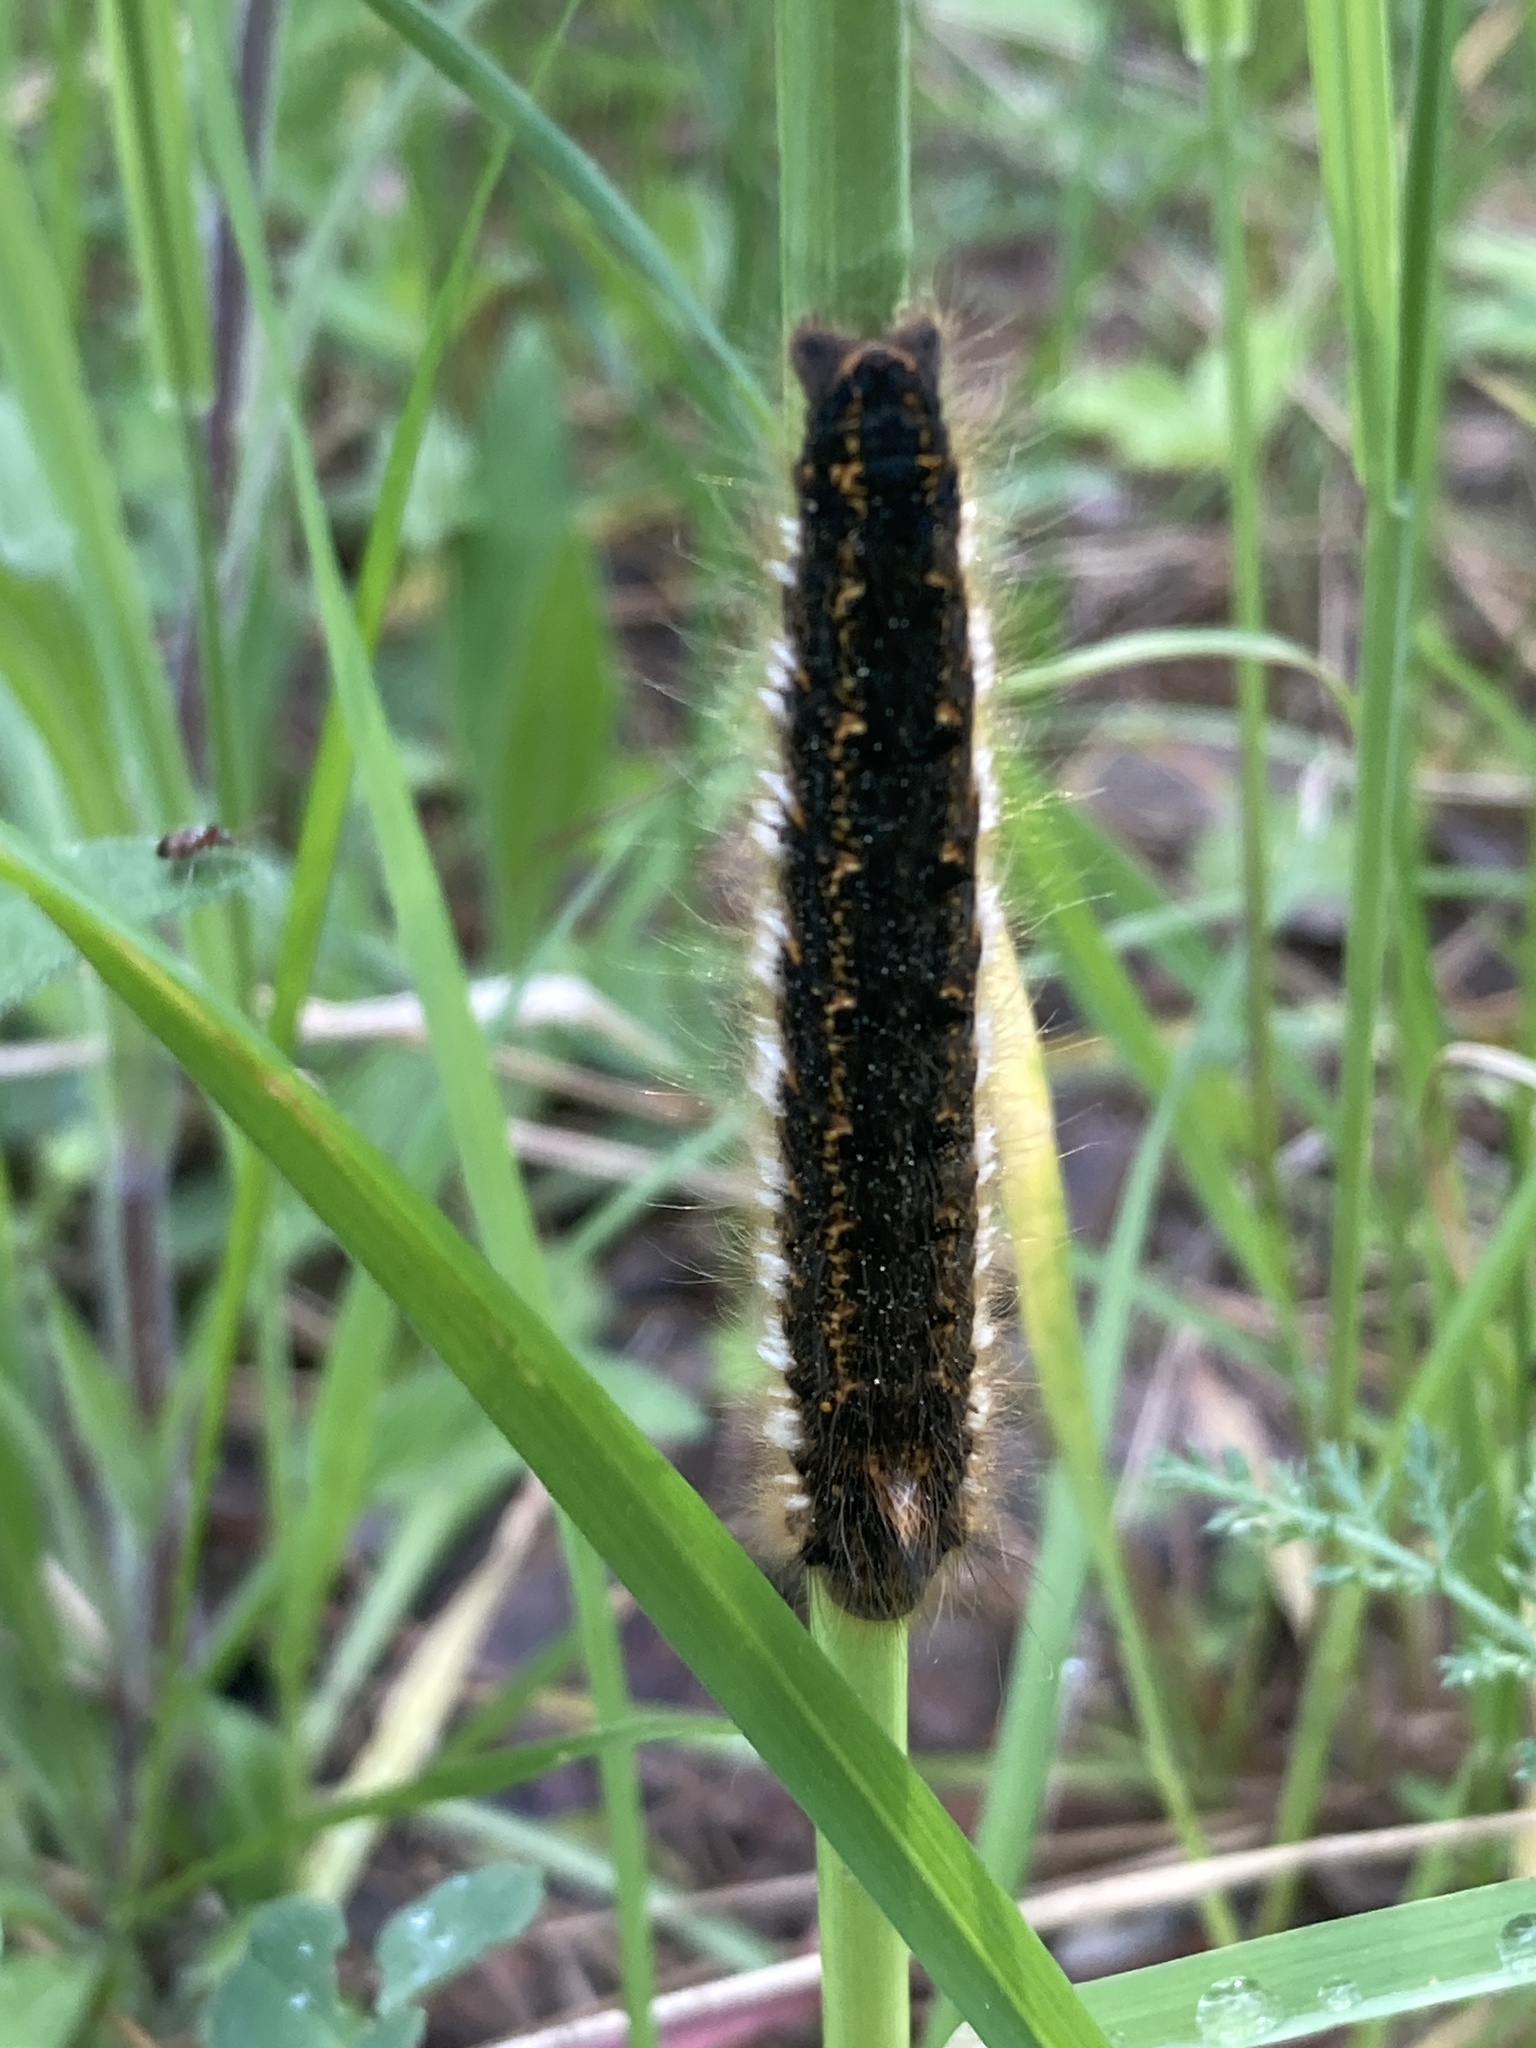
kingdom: Animalia
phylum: Arthropoda
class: Insecta
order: Lepidoptera
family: Lasiocampidae
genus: Euthrix
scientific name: Euthrix potatoria
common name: Drinker
